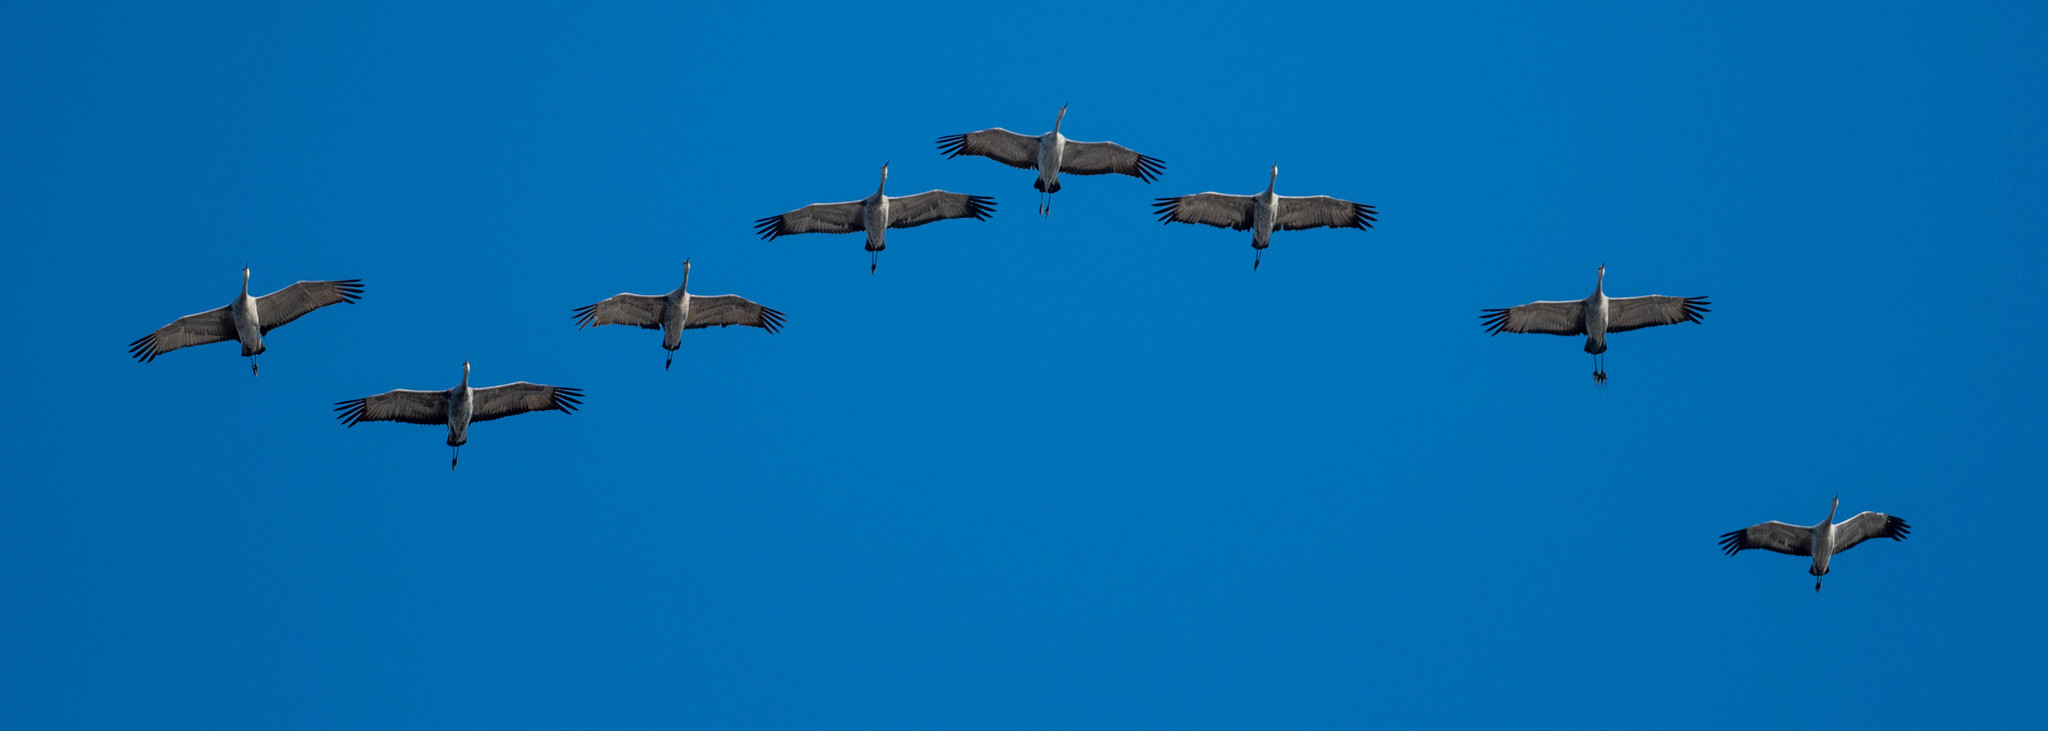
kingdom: Animalia
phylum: Chordata
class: Aves
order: Gruiformes
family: Gruidae
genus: Grus
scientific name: Grus canadensis
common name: Sandhill crane
